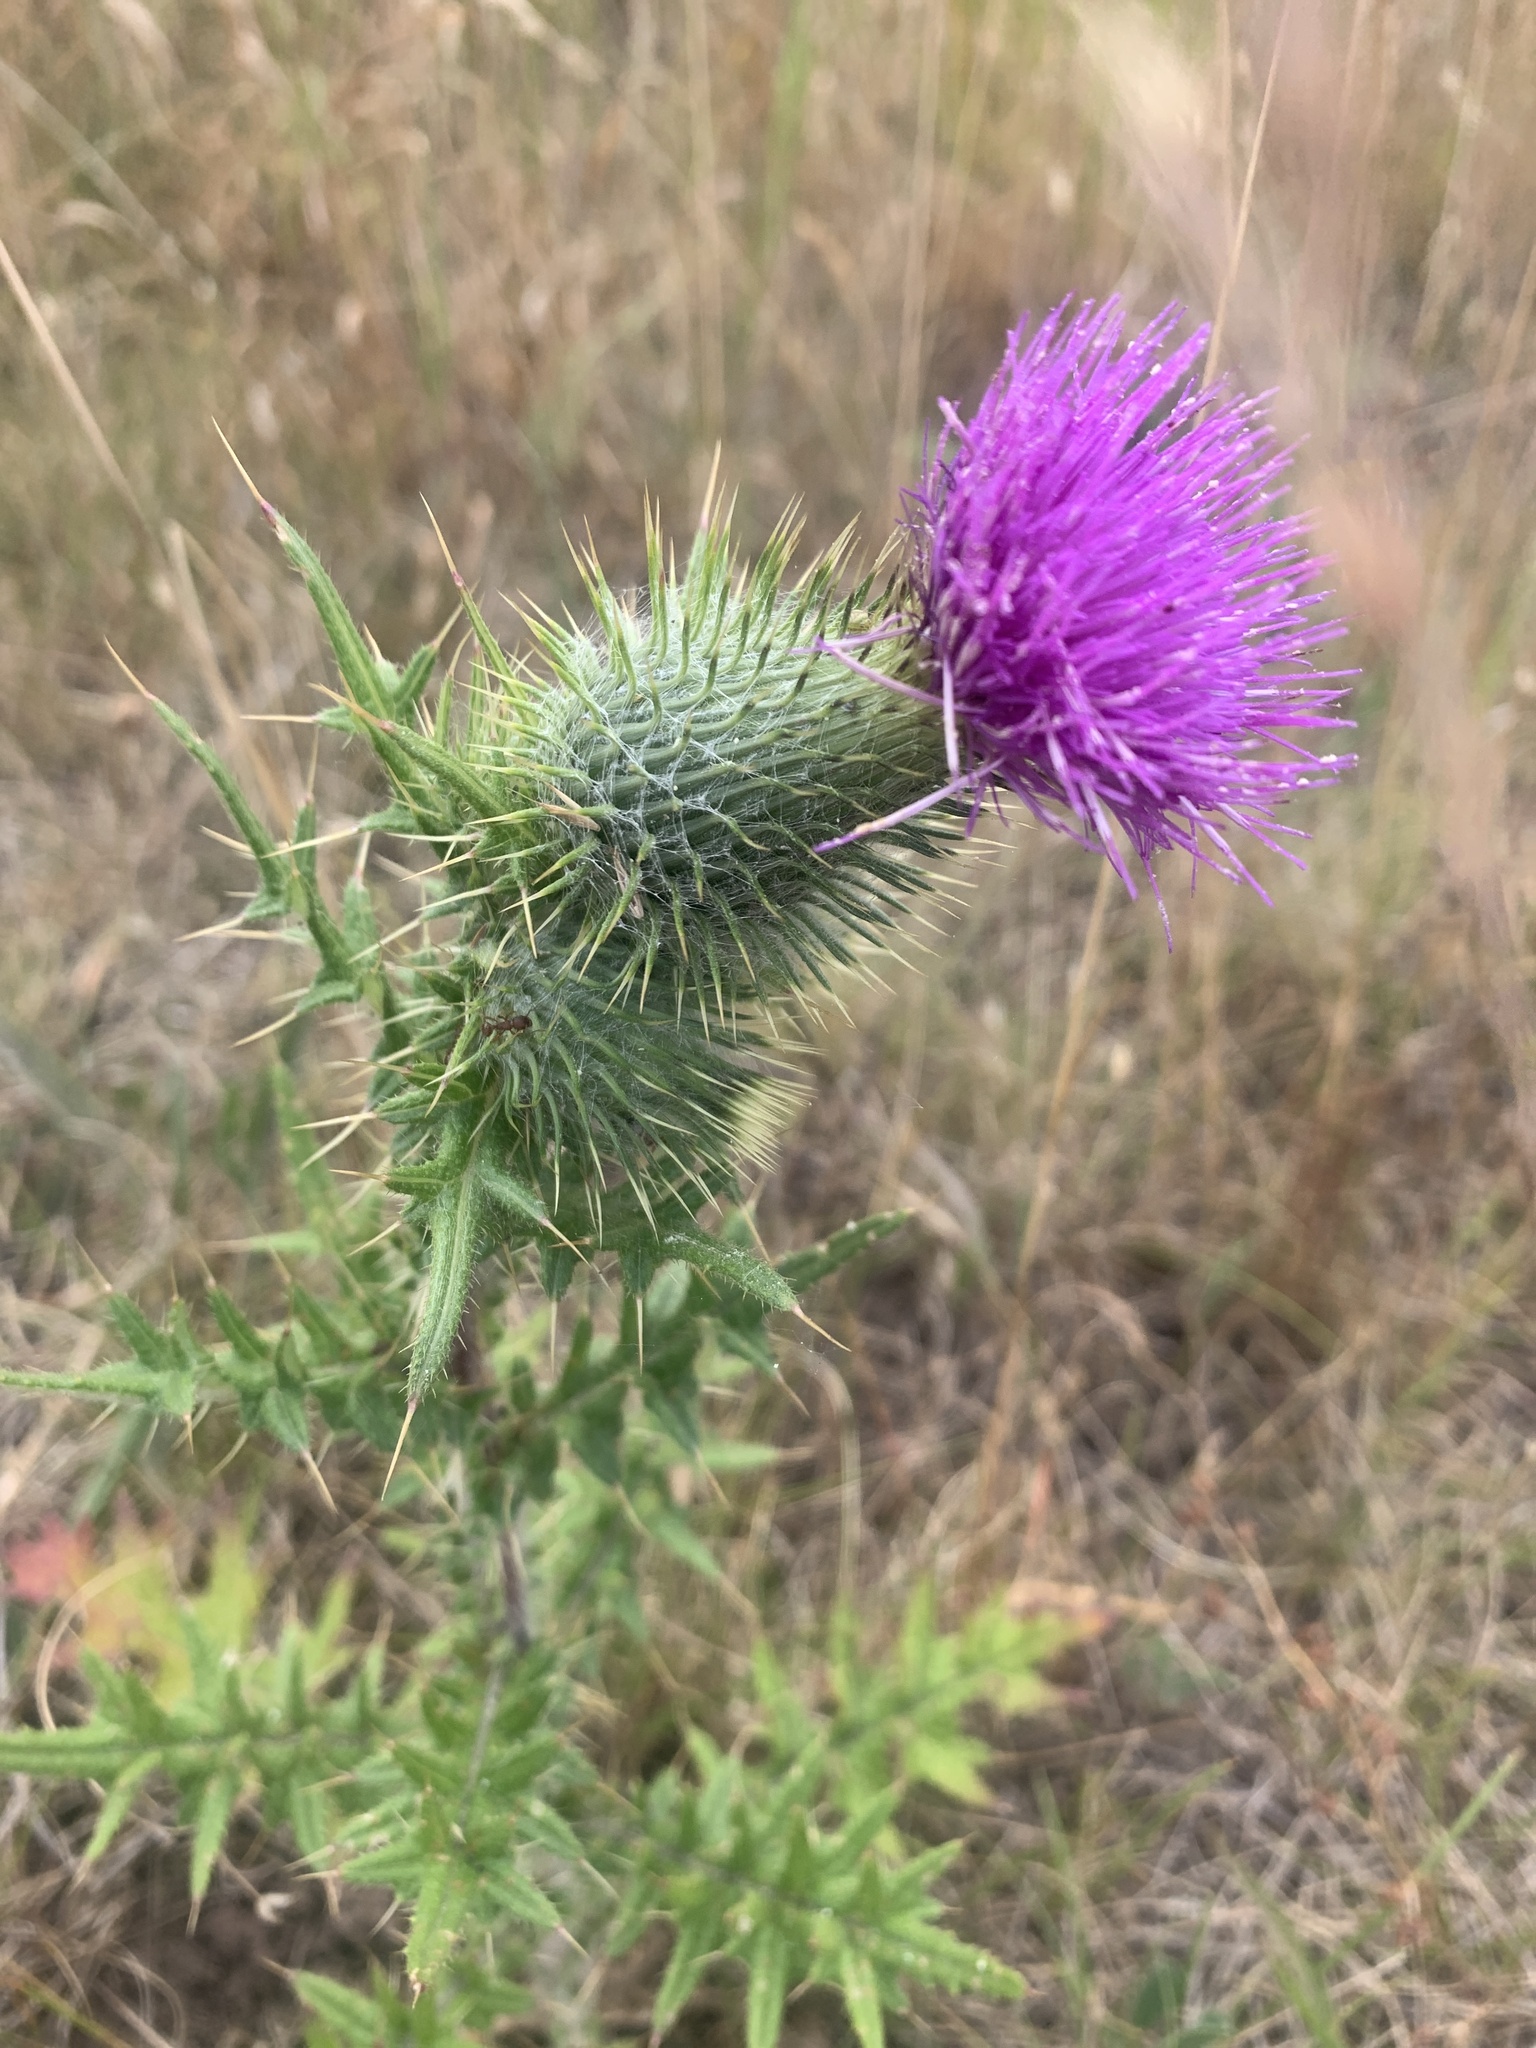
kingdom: Plantae
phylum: Tracheophyta
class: Magnoliopsida
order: Asterales
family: Asteraceae
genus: Cirsium
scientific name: Cirsium vulgare
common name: Bull thistle
